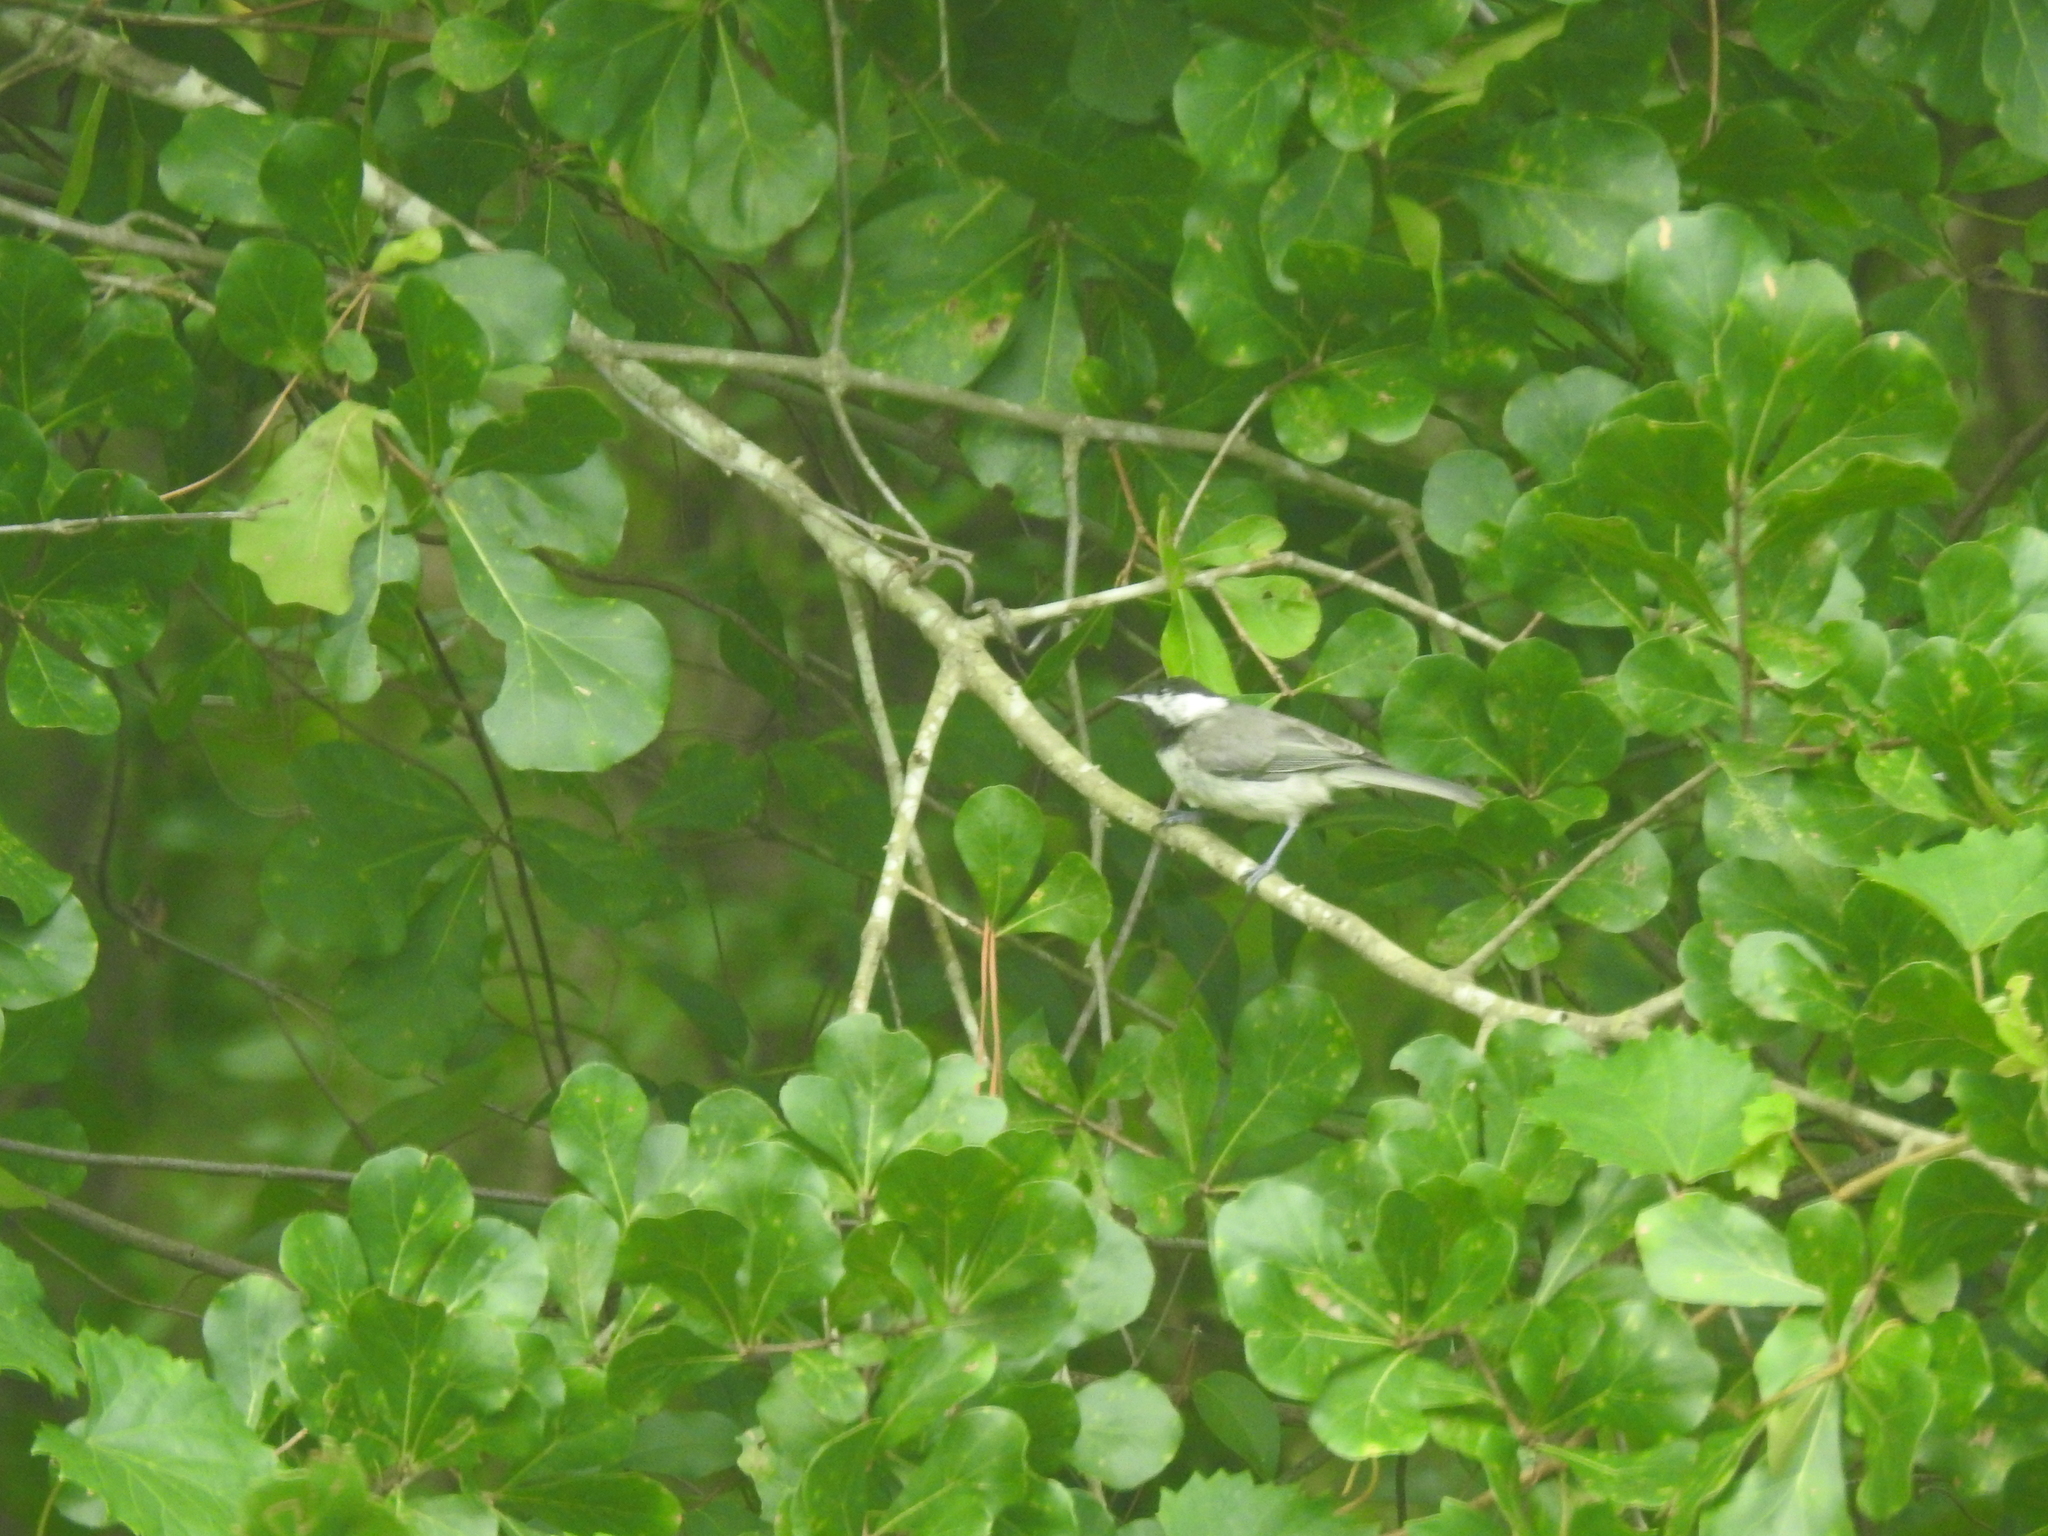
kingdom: Animalia
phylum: Chordata
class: Aves
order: Passeriformes
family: Paridae
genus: Poecile
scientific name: Poecile carolinensis
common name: Carolina chickadee
